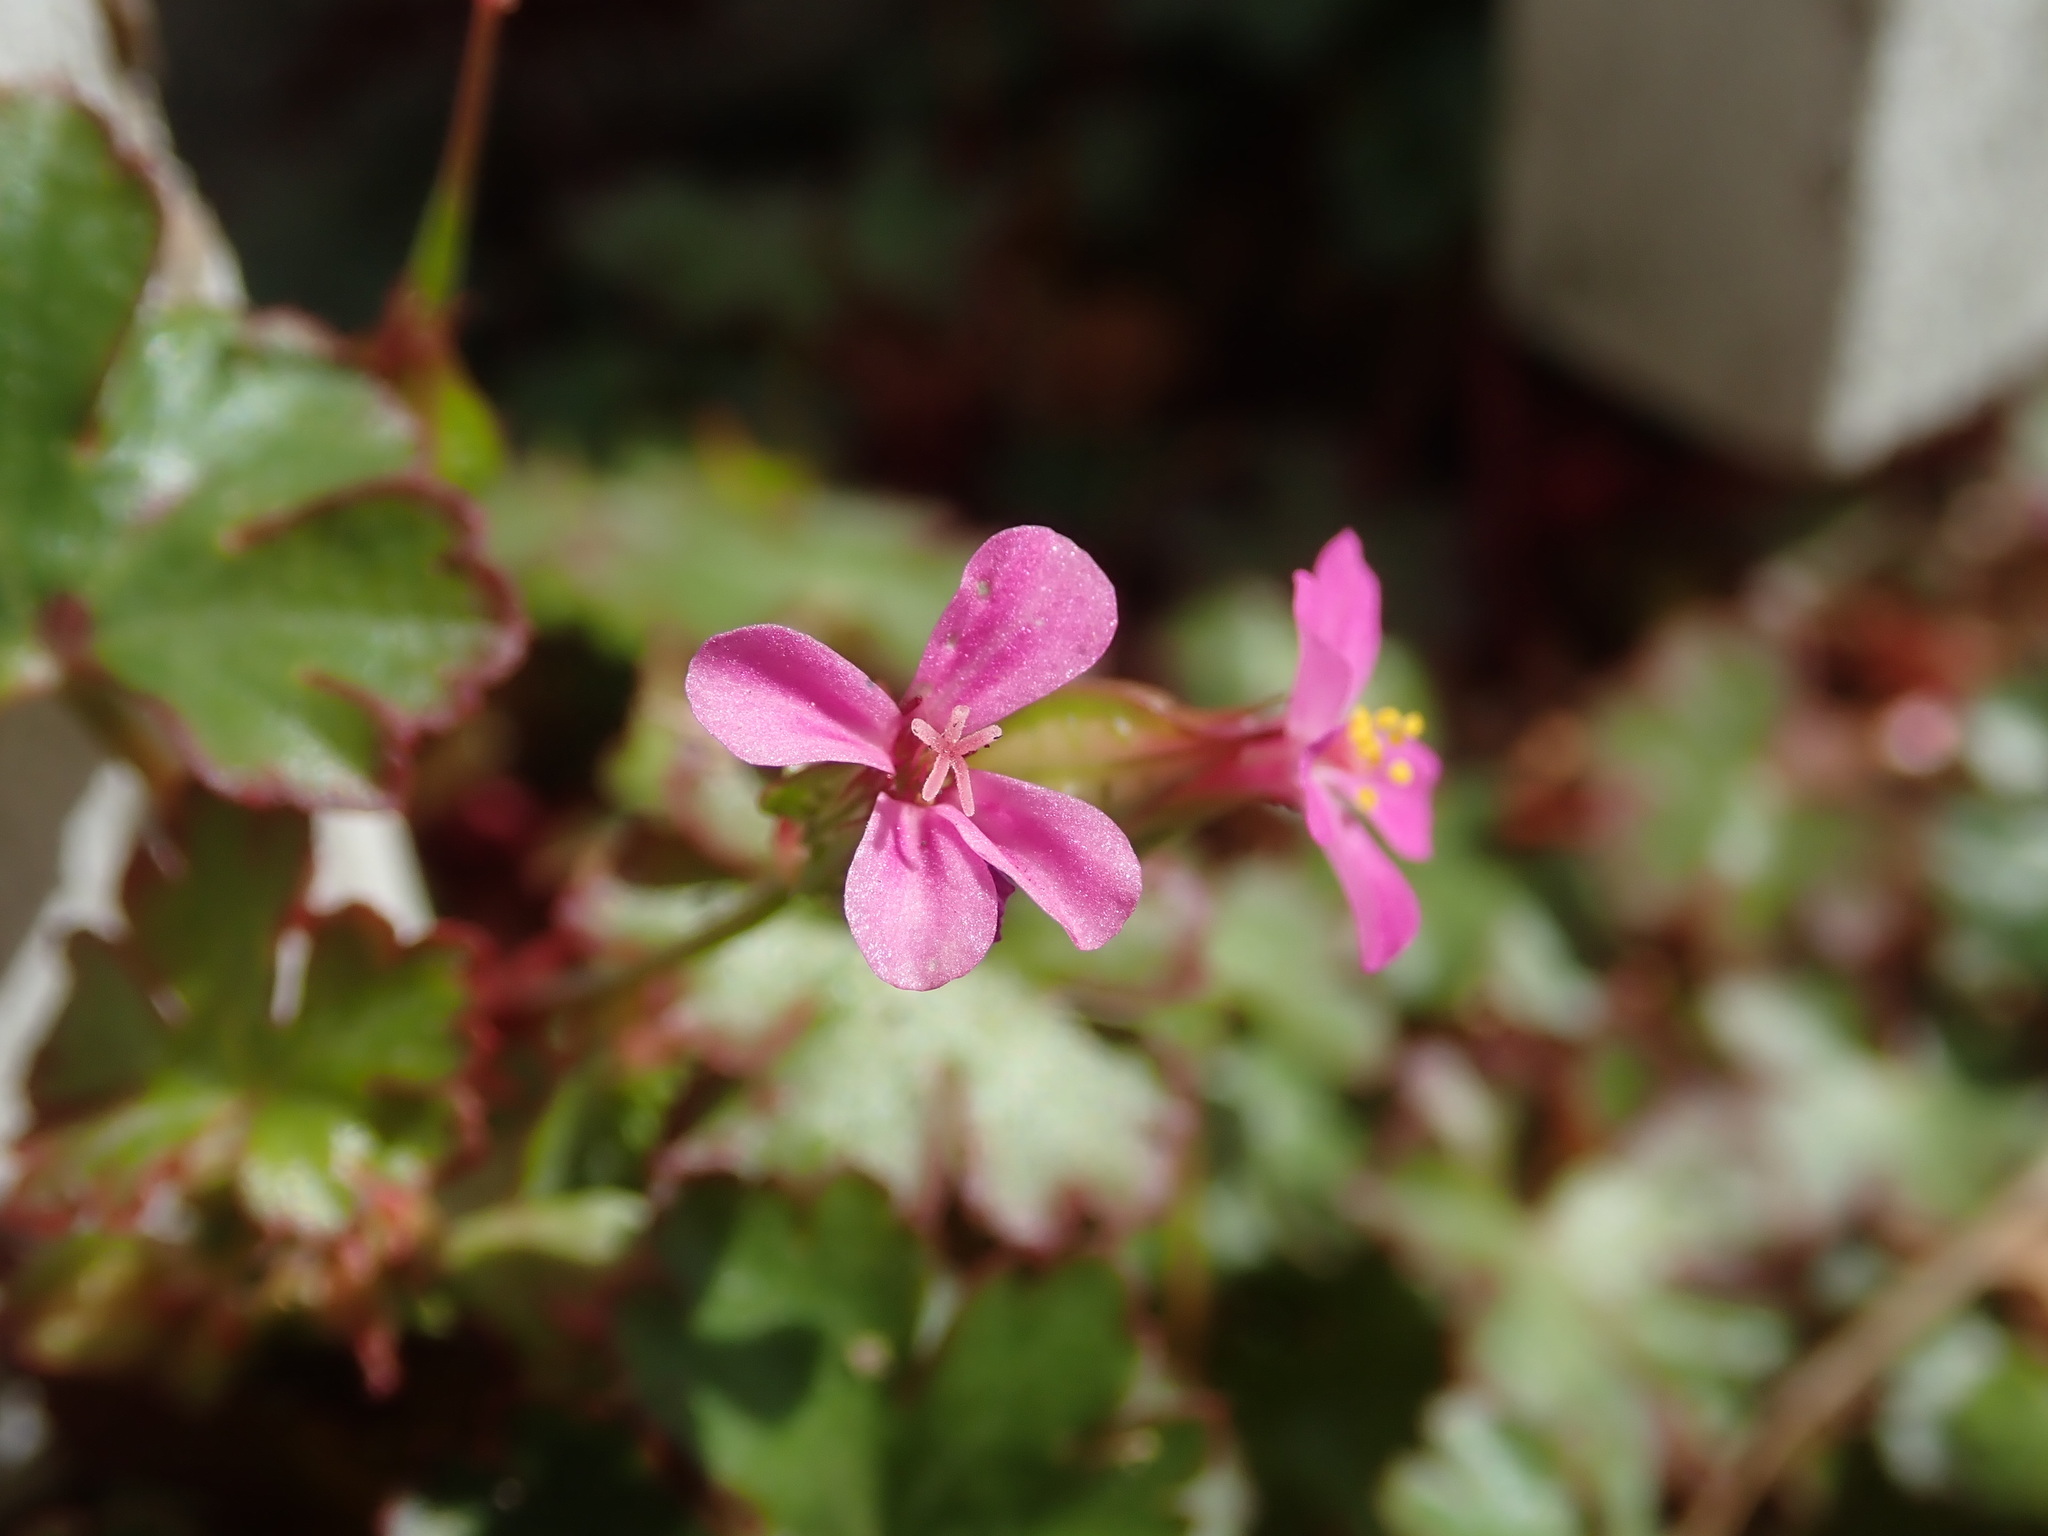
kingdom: Plantae
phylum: Tracheophyta
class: Magnoliopsida
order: Geraniales
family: Geraniaceae
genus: Geranium
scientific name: Geranium lucidum
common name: Shining crane's-bill
